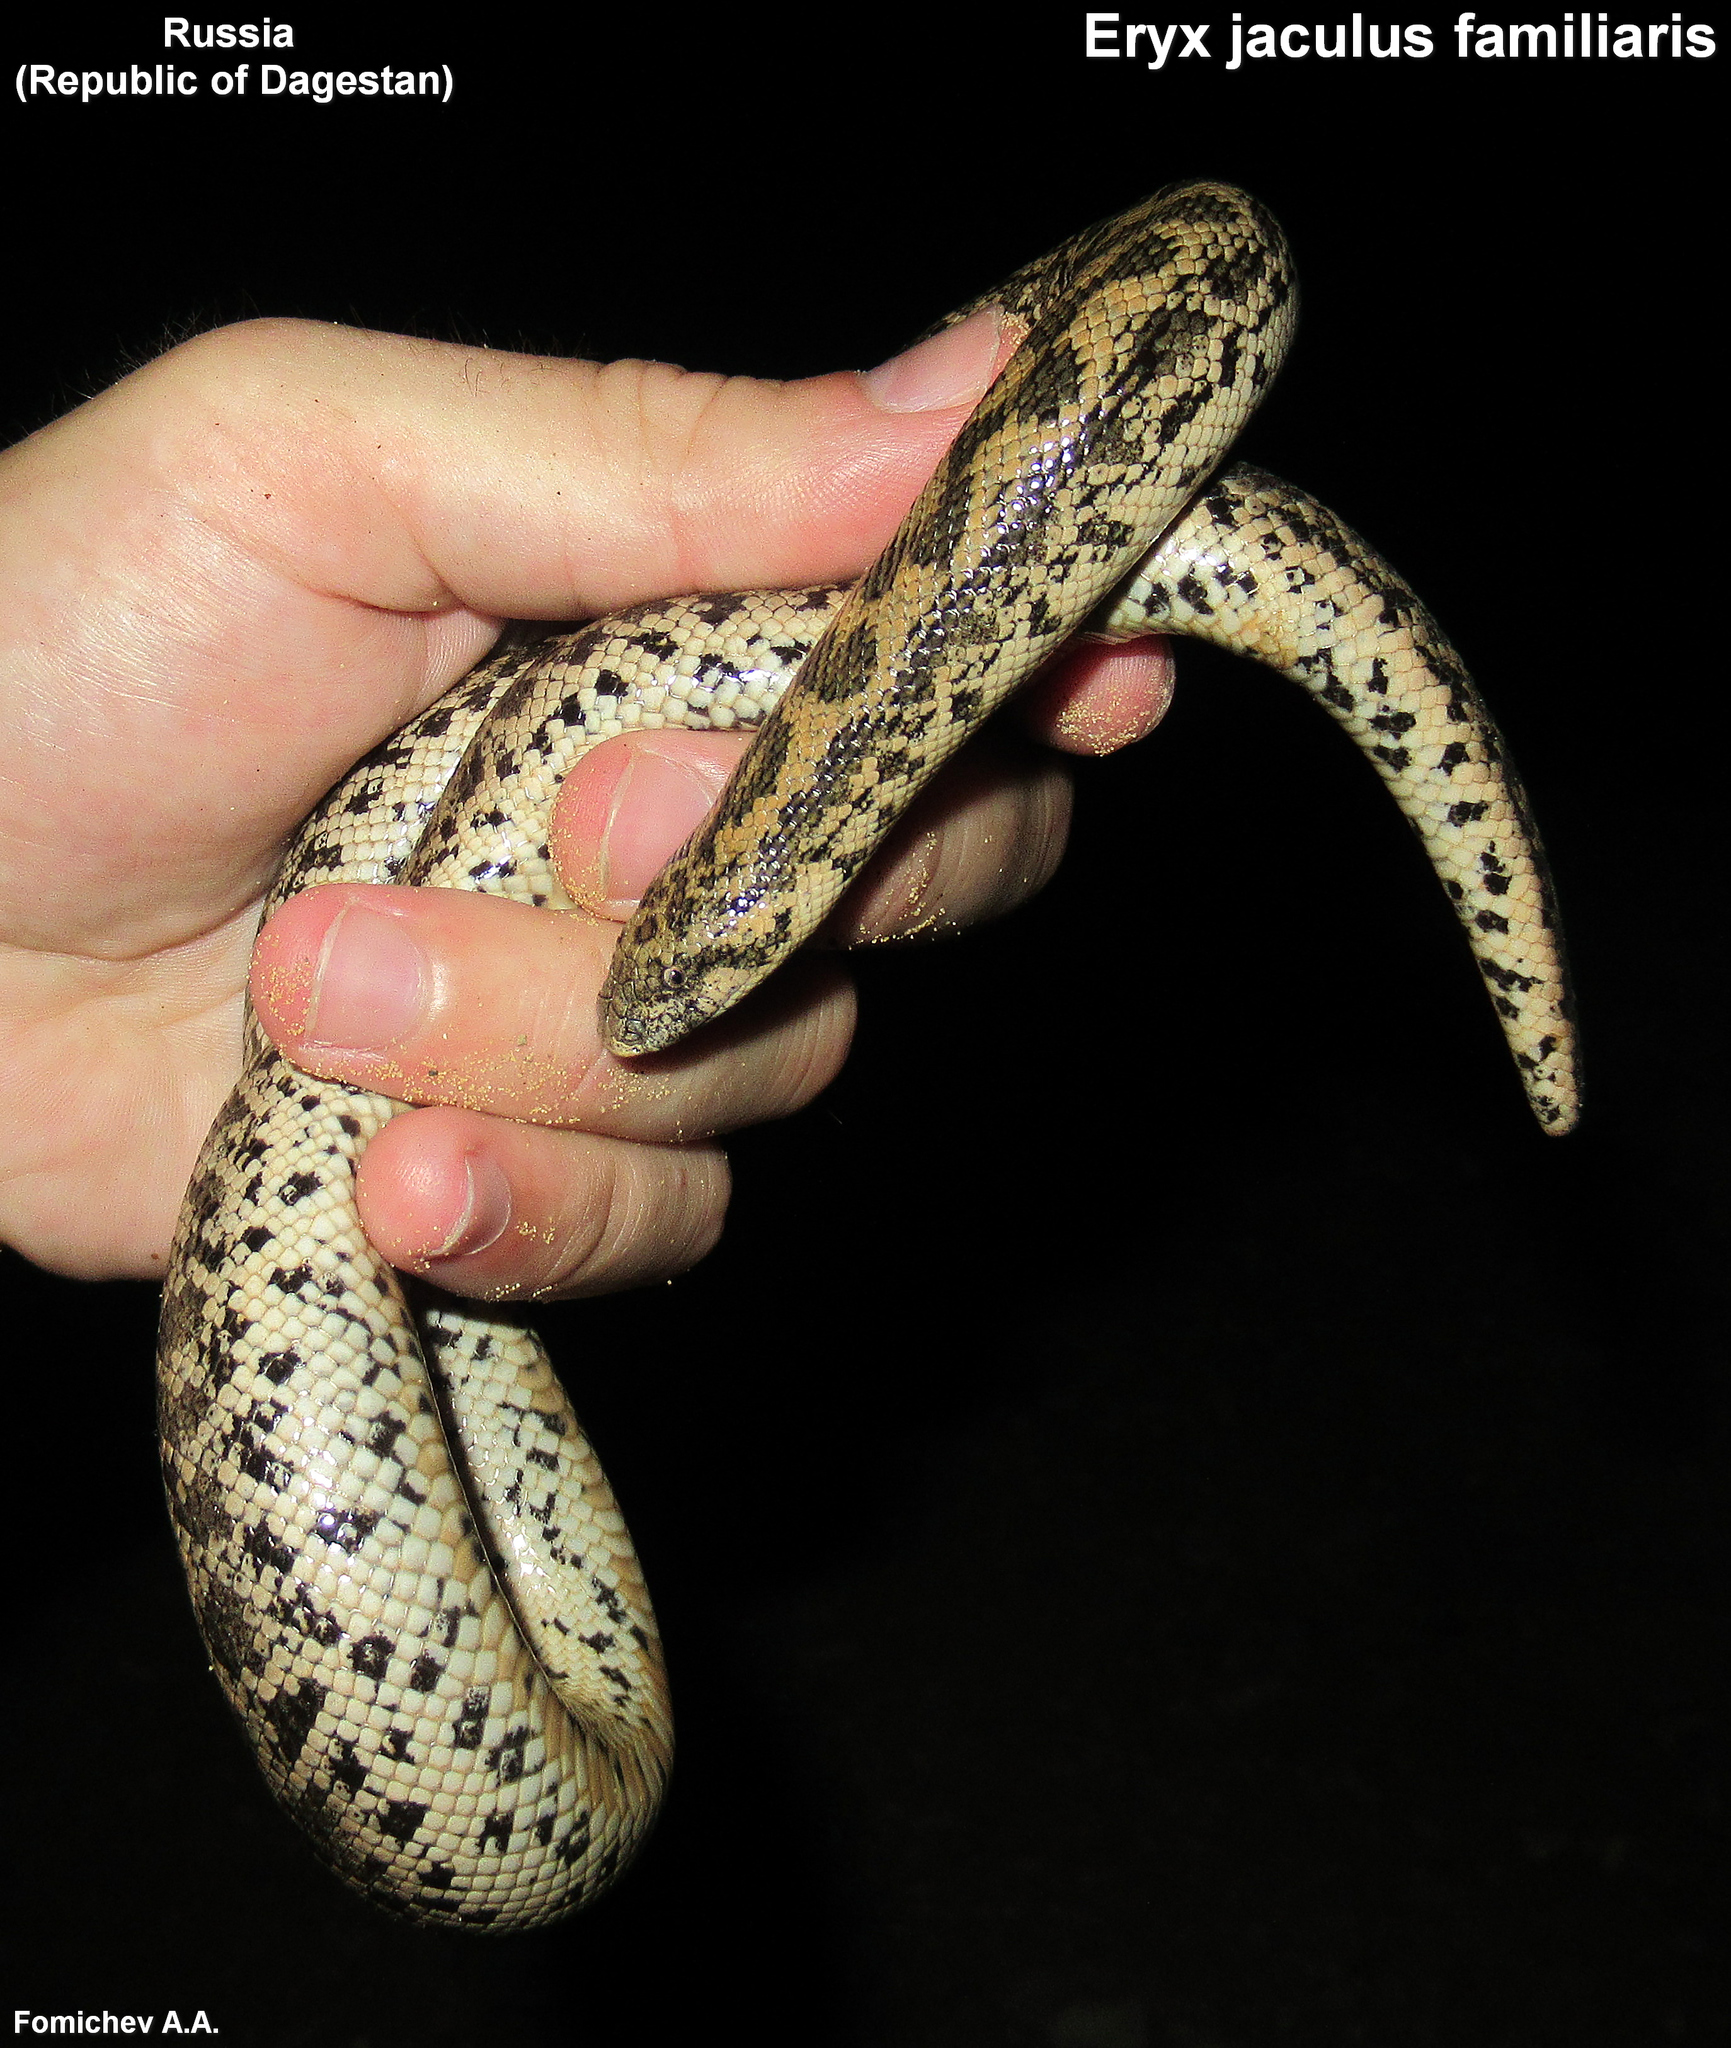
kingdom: Animalia
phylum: Chordata
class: Squamata
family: Boidae
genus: Eryx
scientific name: Eryx jaculus
